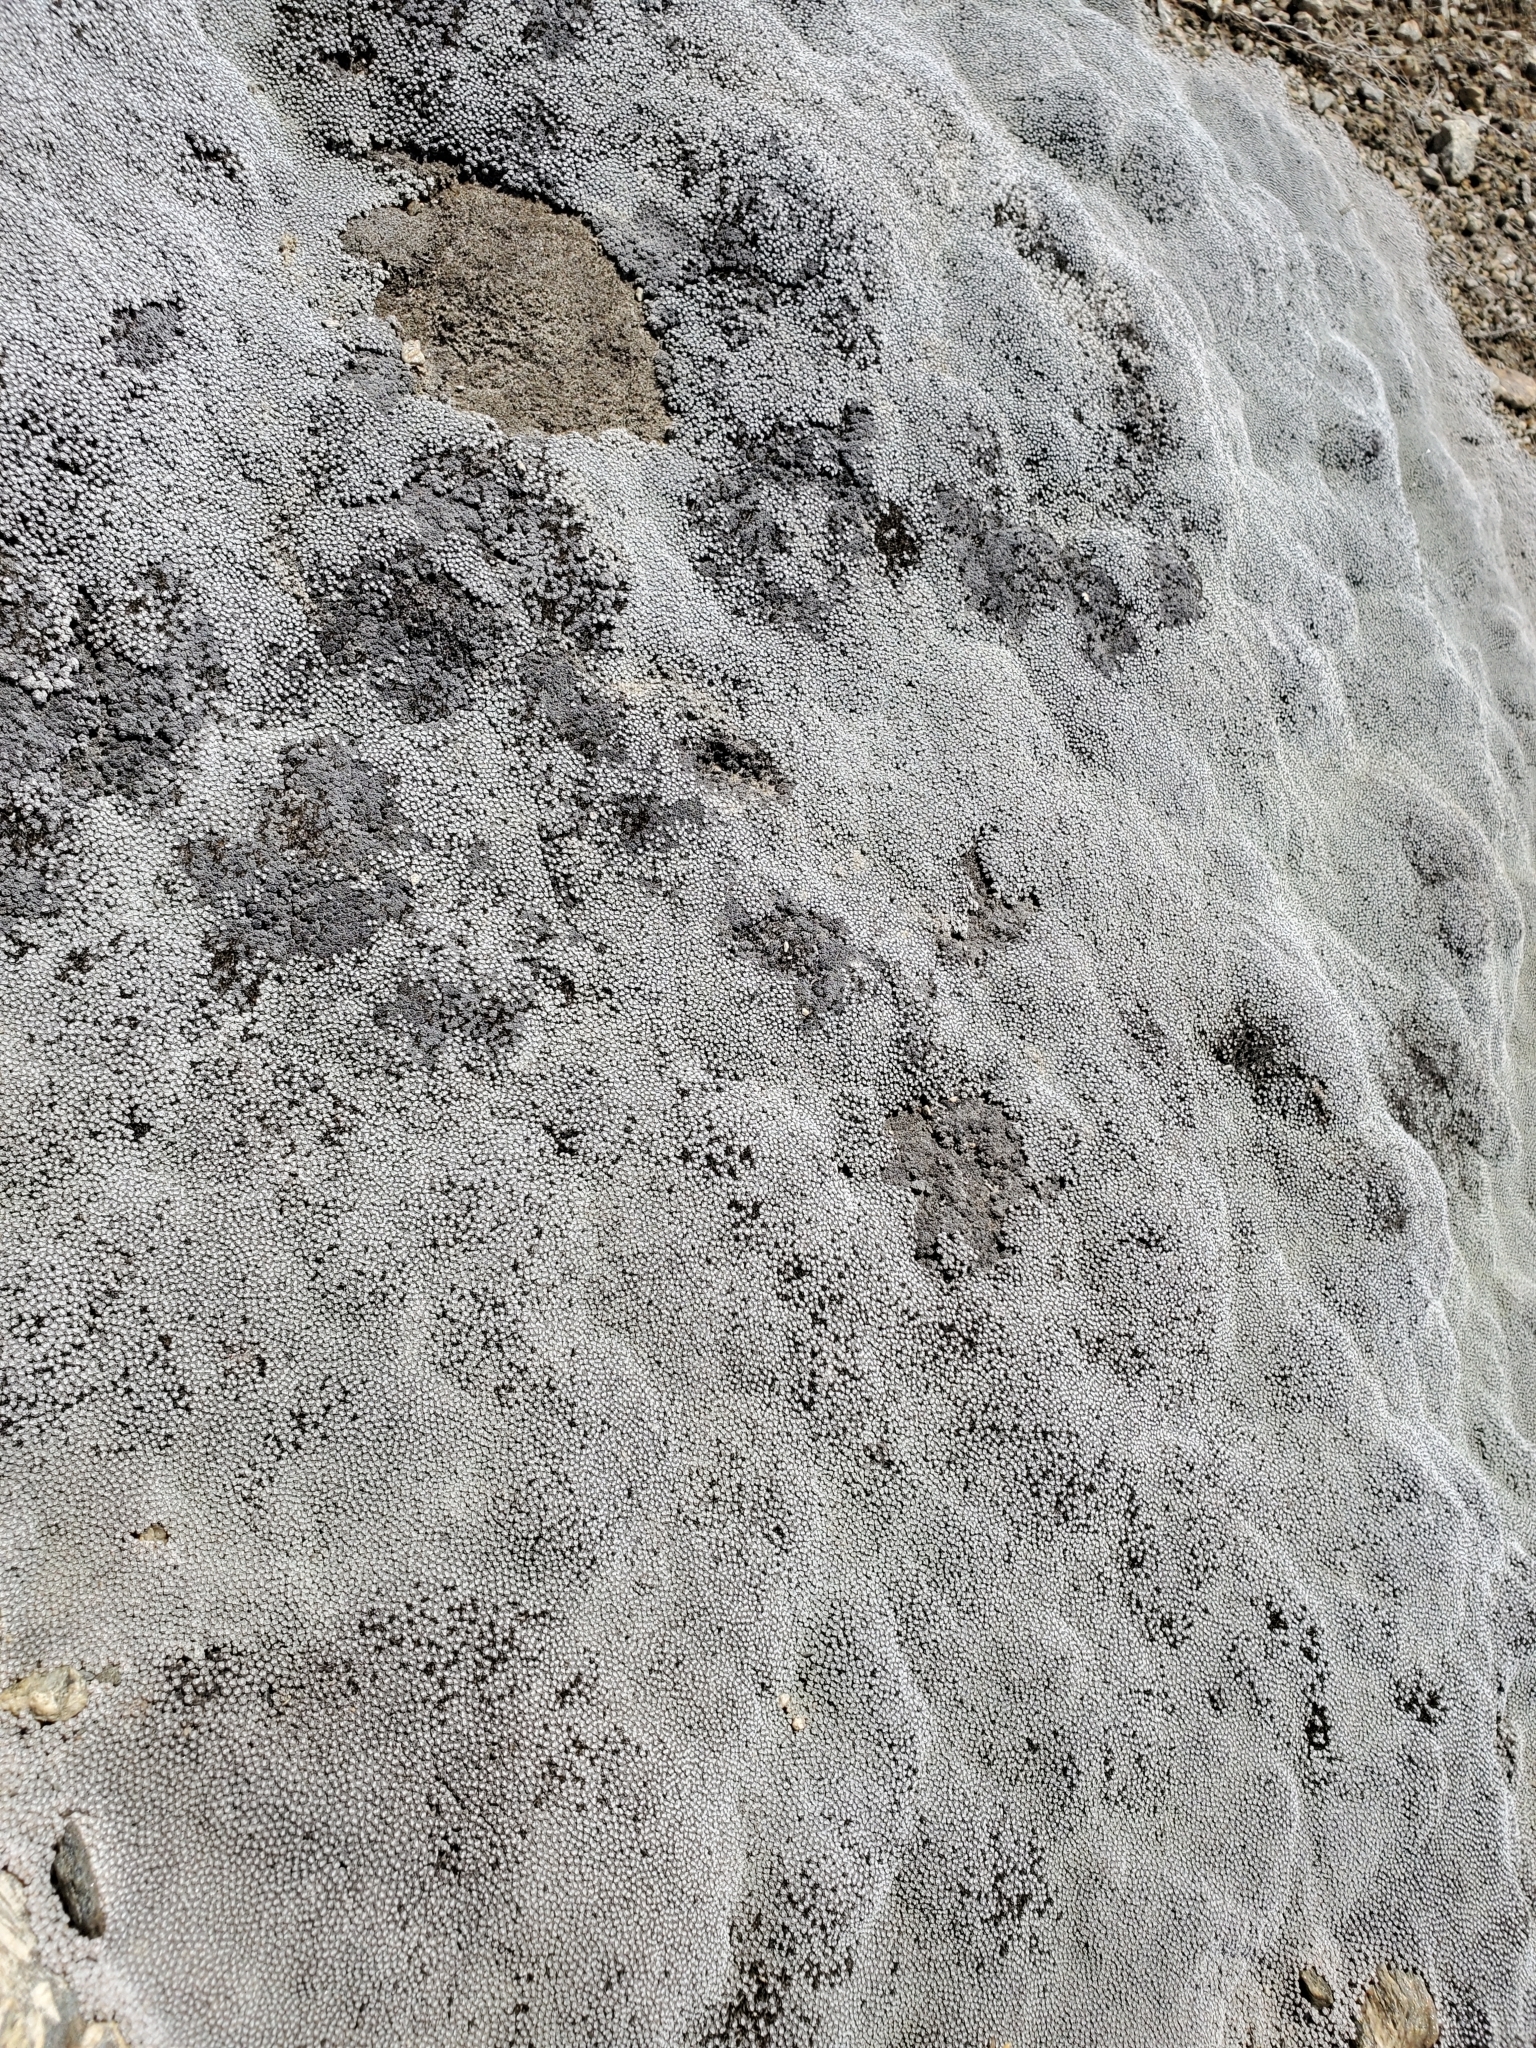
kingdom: Plantae
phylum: Tracheophyta
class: Magnoliopsida
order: Asterales
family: Asteraceae
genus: Raoulia
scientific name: Raoulia australis
